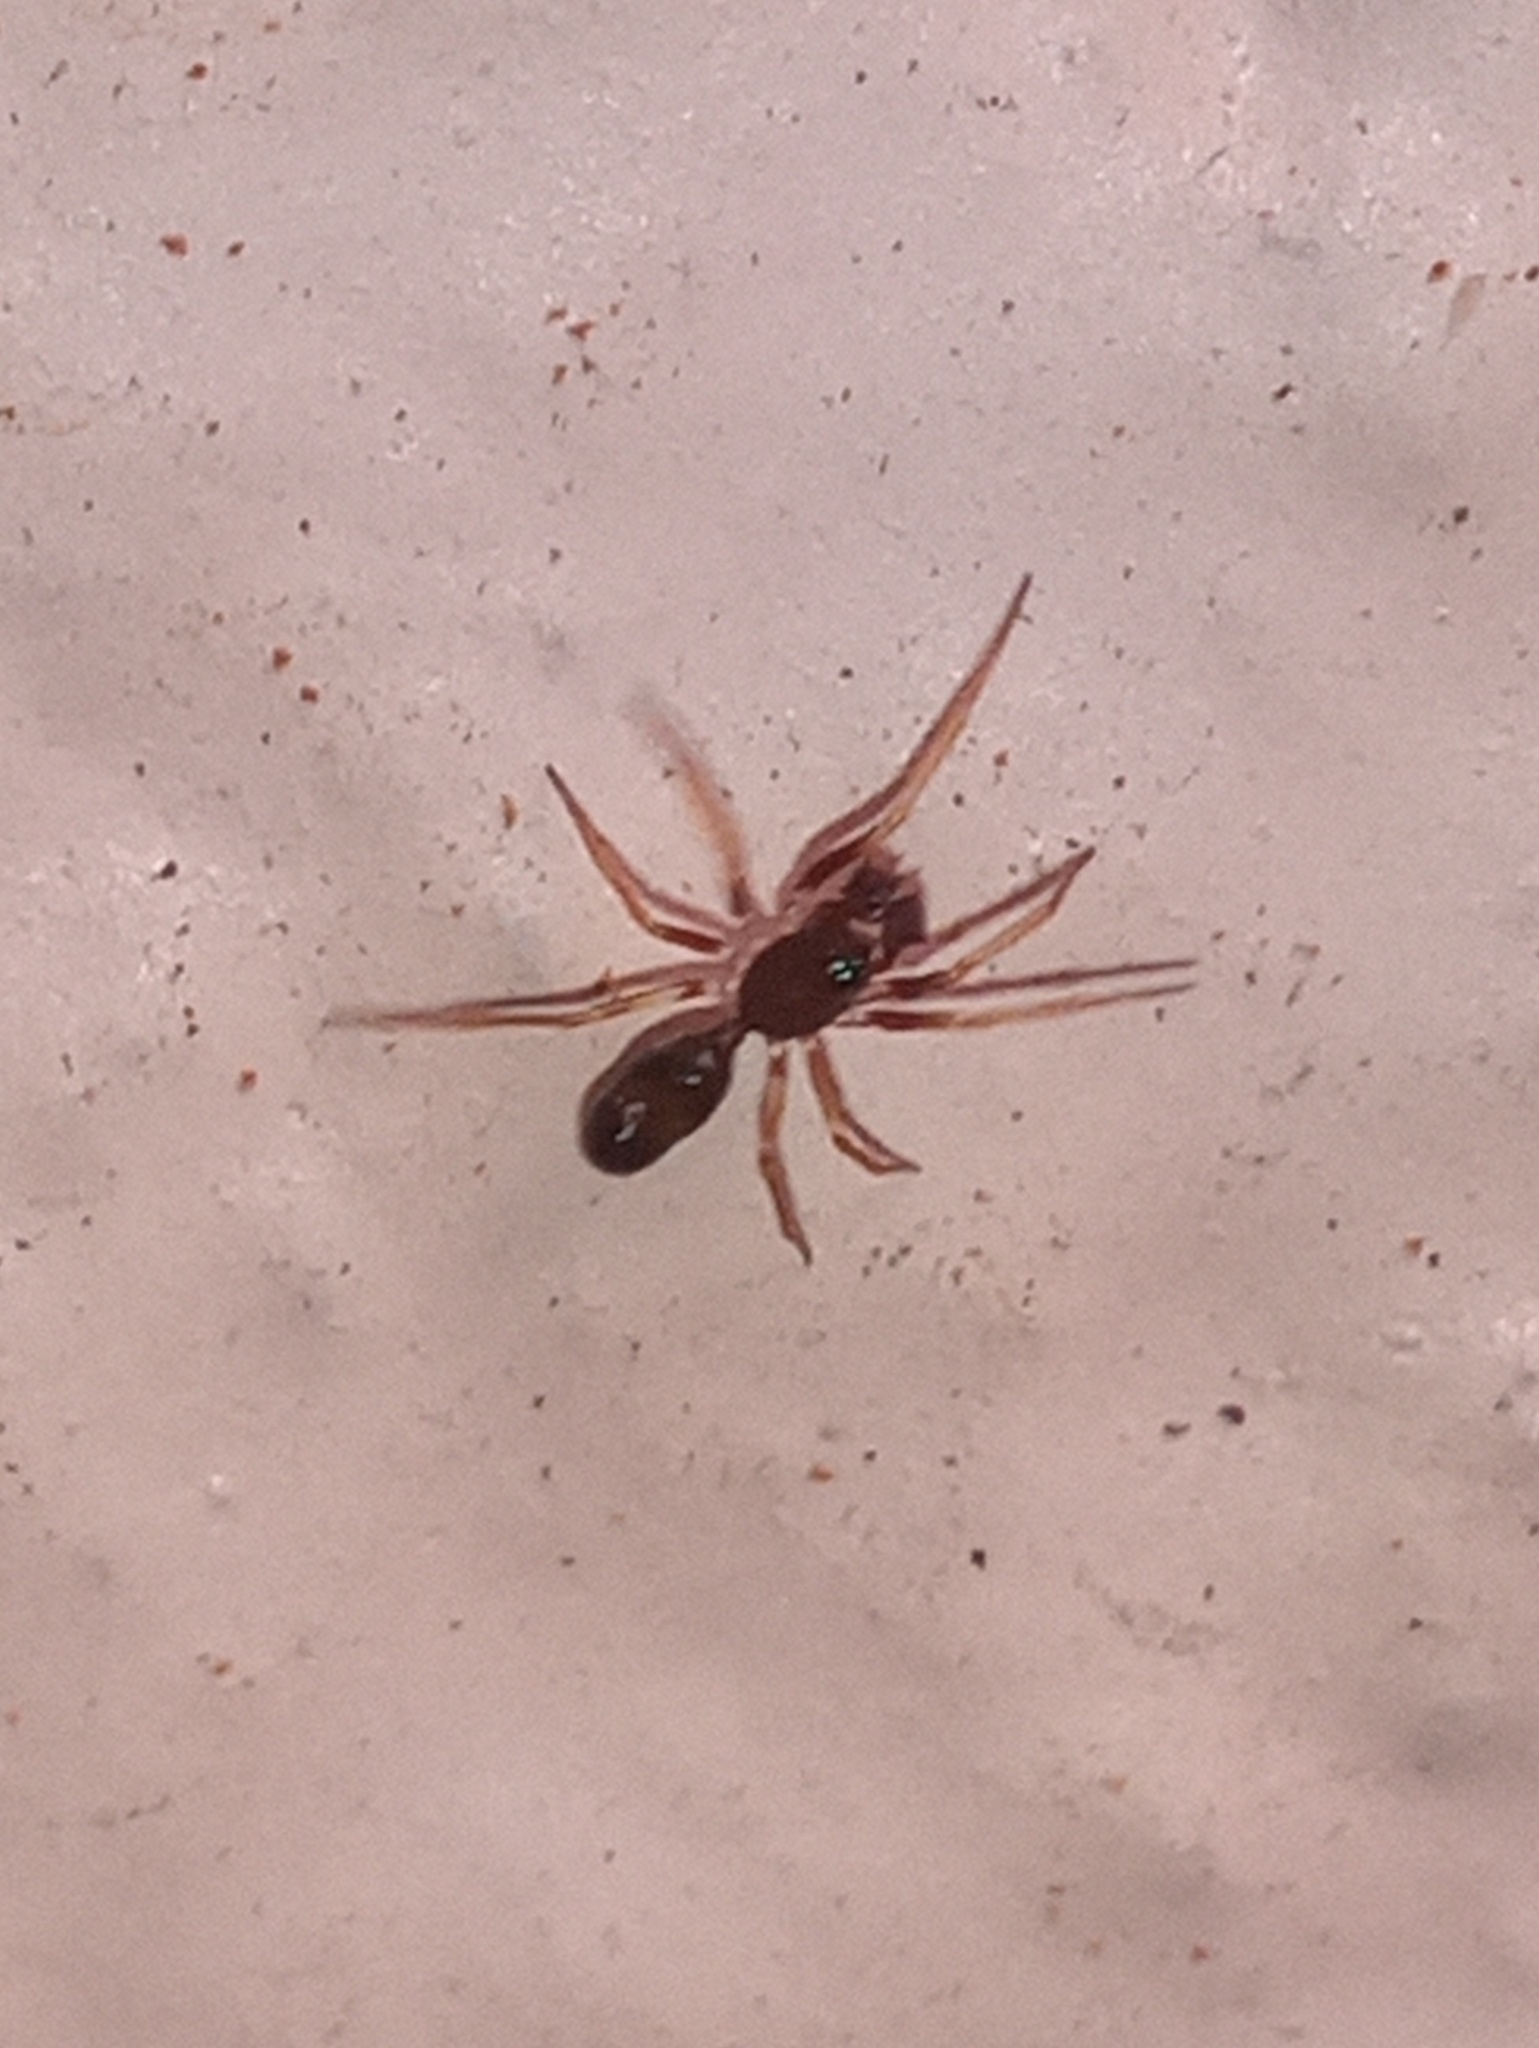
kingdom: Animalia
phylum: Arthropoda
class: Arachnida
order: Araneae
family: Theridiidae
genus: Coleosoma
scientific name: Coleosoma acutiventer
